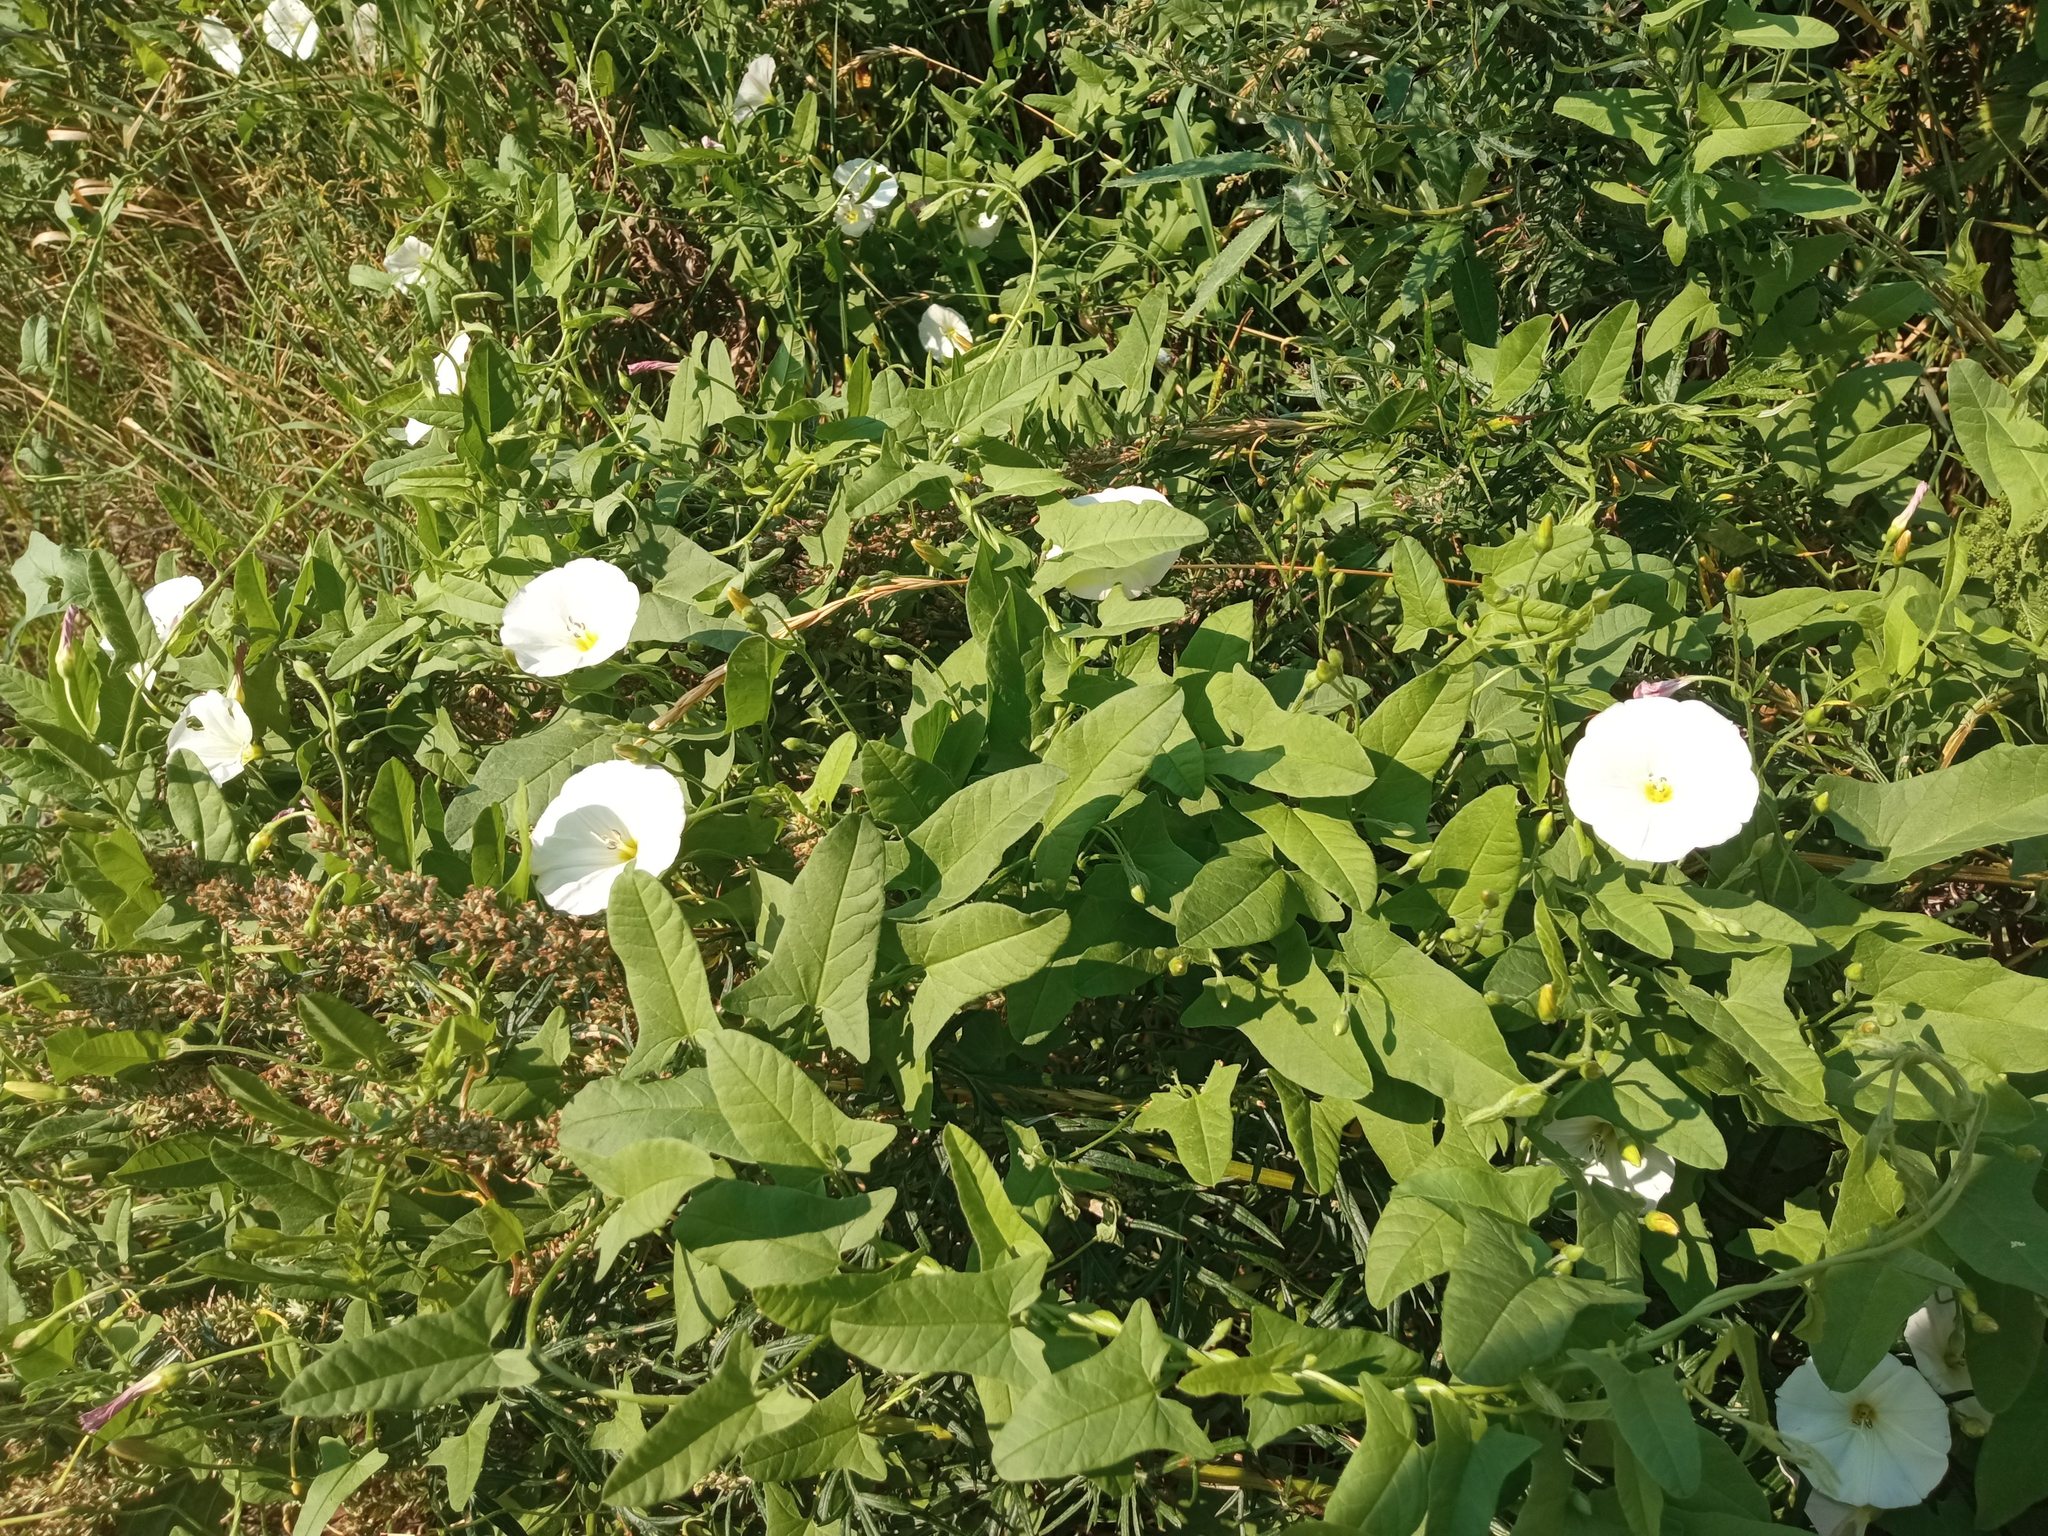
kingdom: Plantae
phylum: Tracheophyta
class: Magnoliopsida
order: Solanales
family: Convolvulaceae
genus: Convolvulus
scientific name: Convolvulus arvensis
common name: Field bindweed
